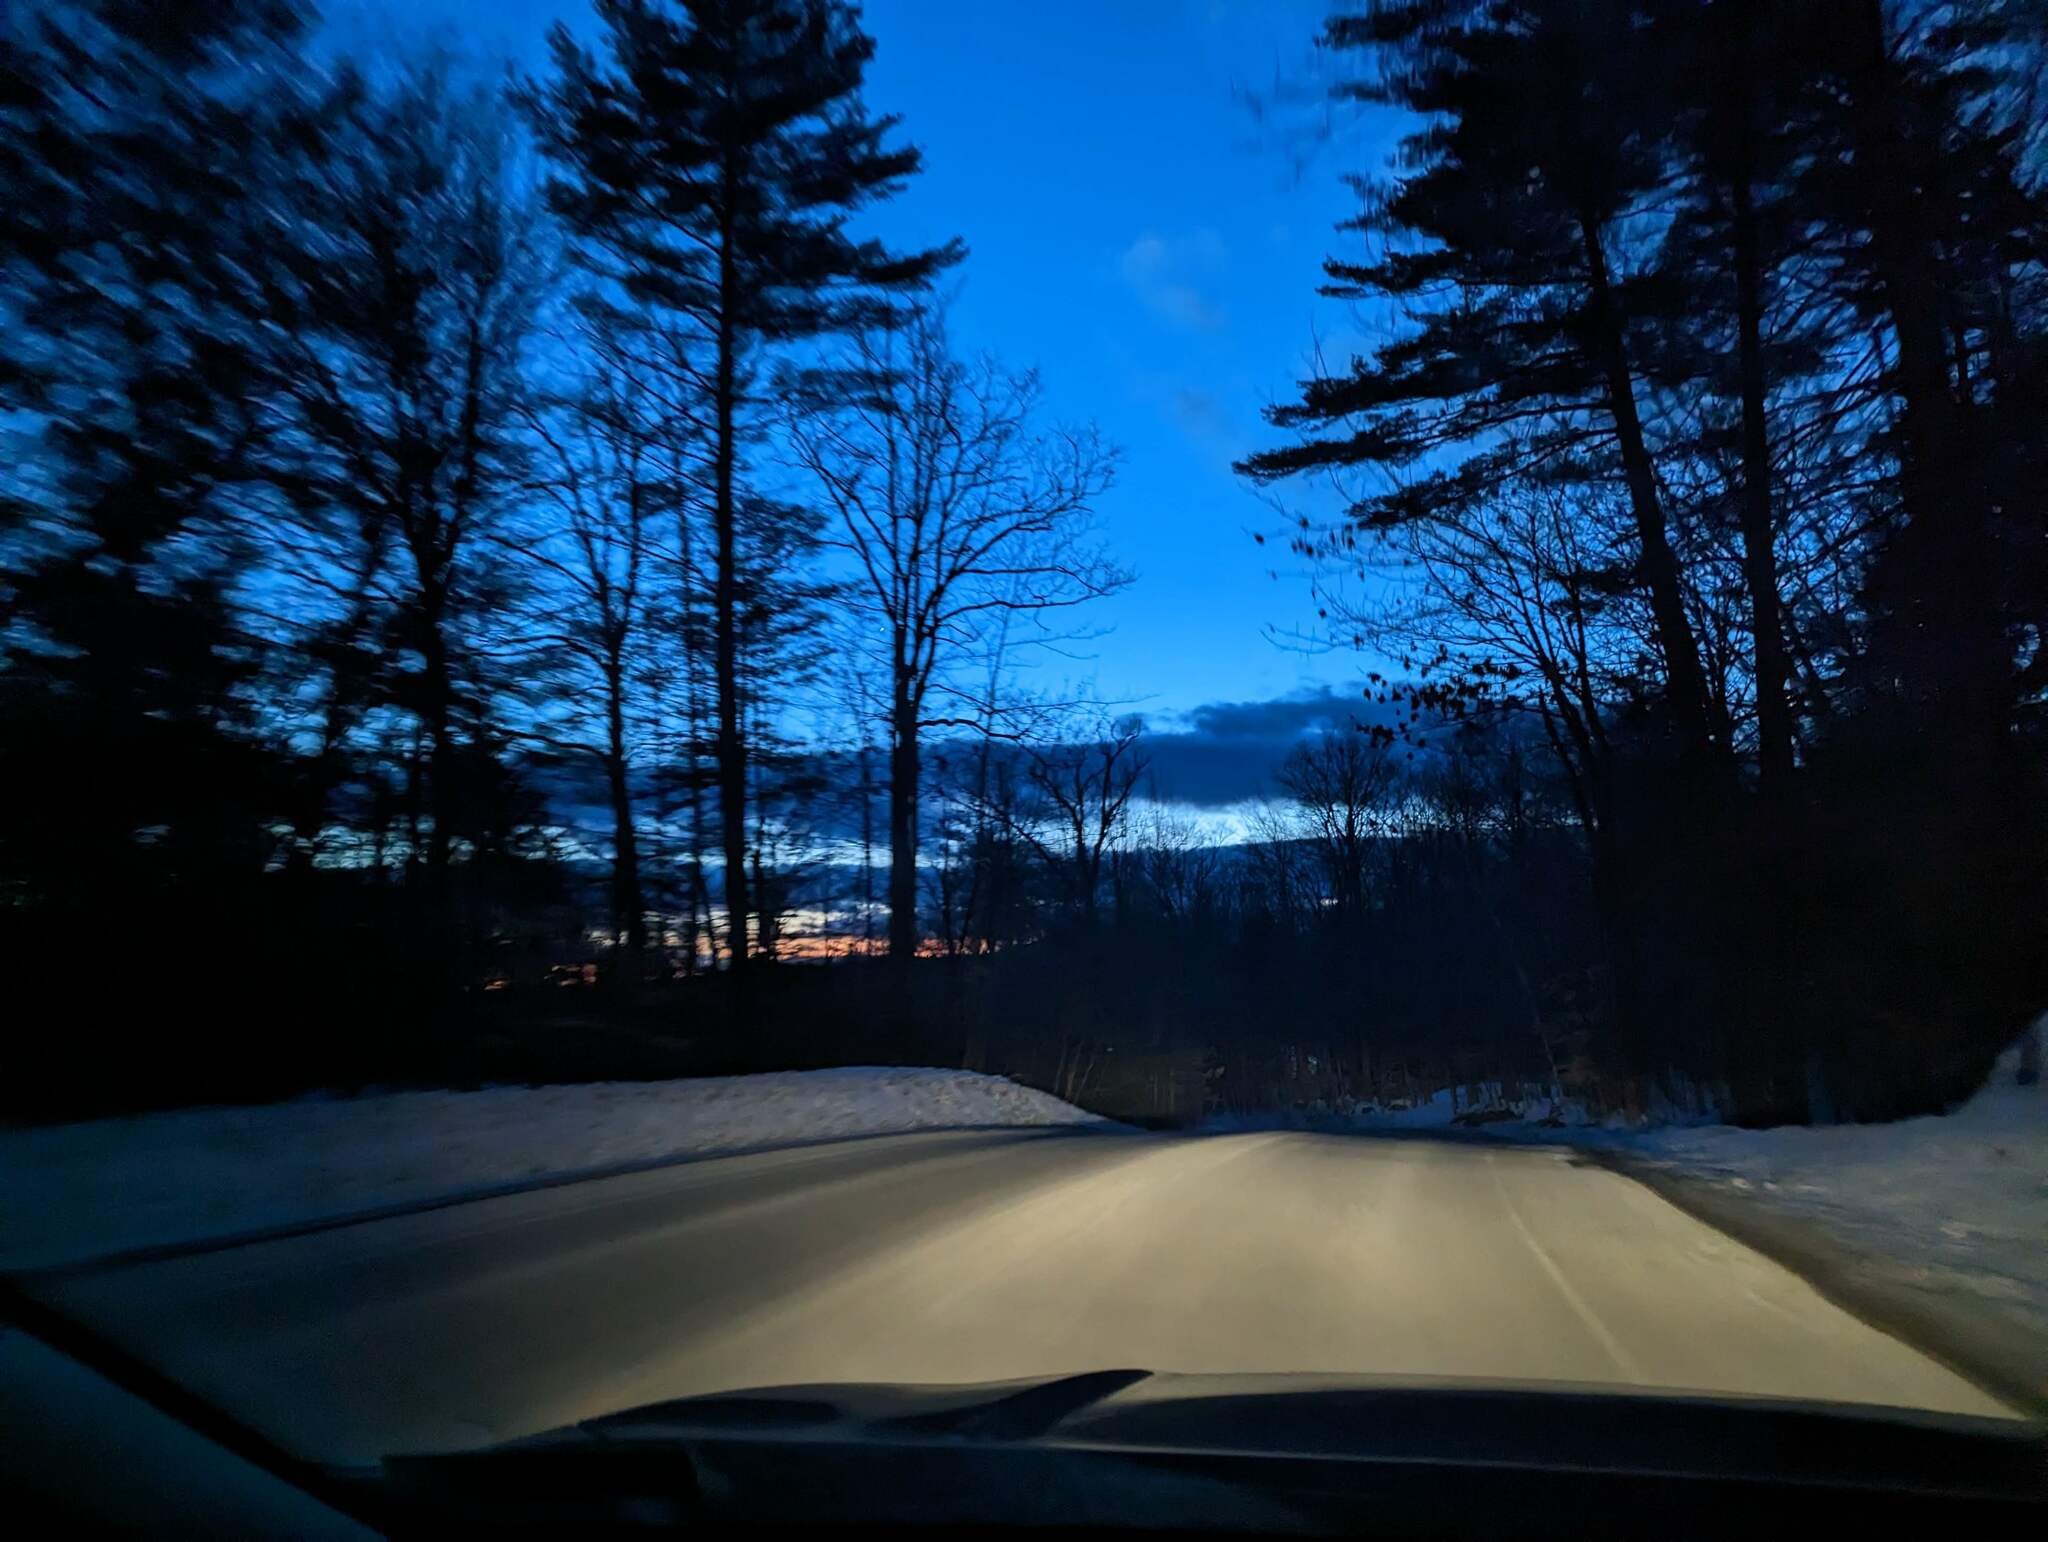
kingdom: Plantae
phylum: Tracheophyta
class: Pinopsida
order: Pinales
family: Pinaceae
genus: Pinus
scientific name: Pinus strobus
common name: Weymouth pine
